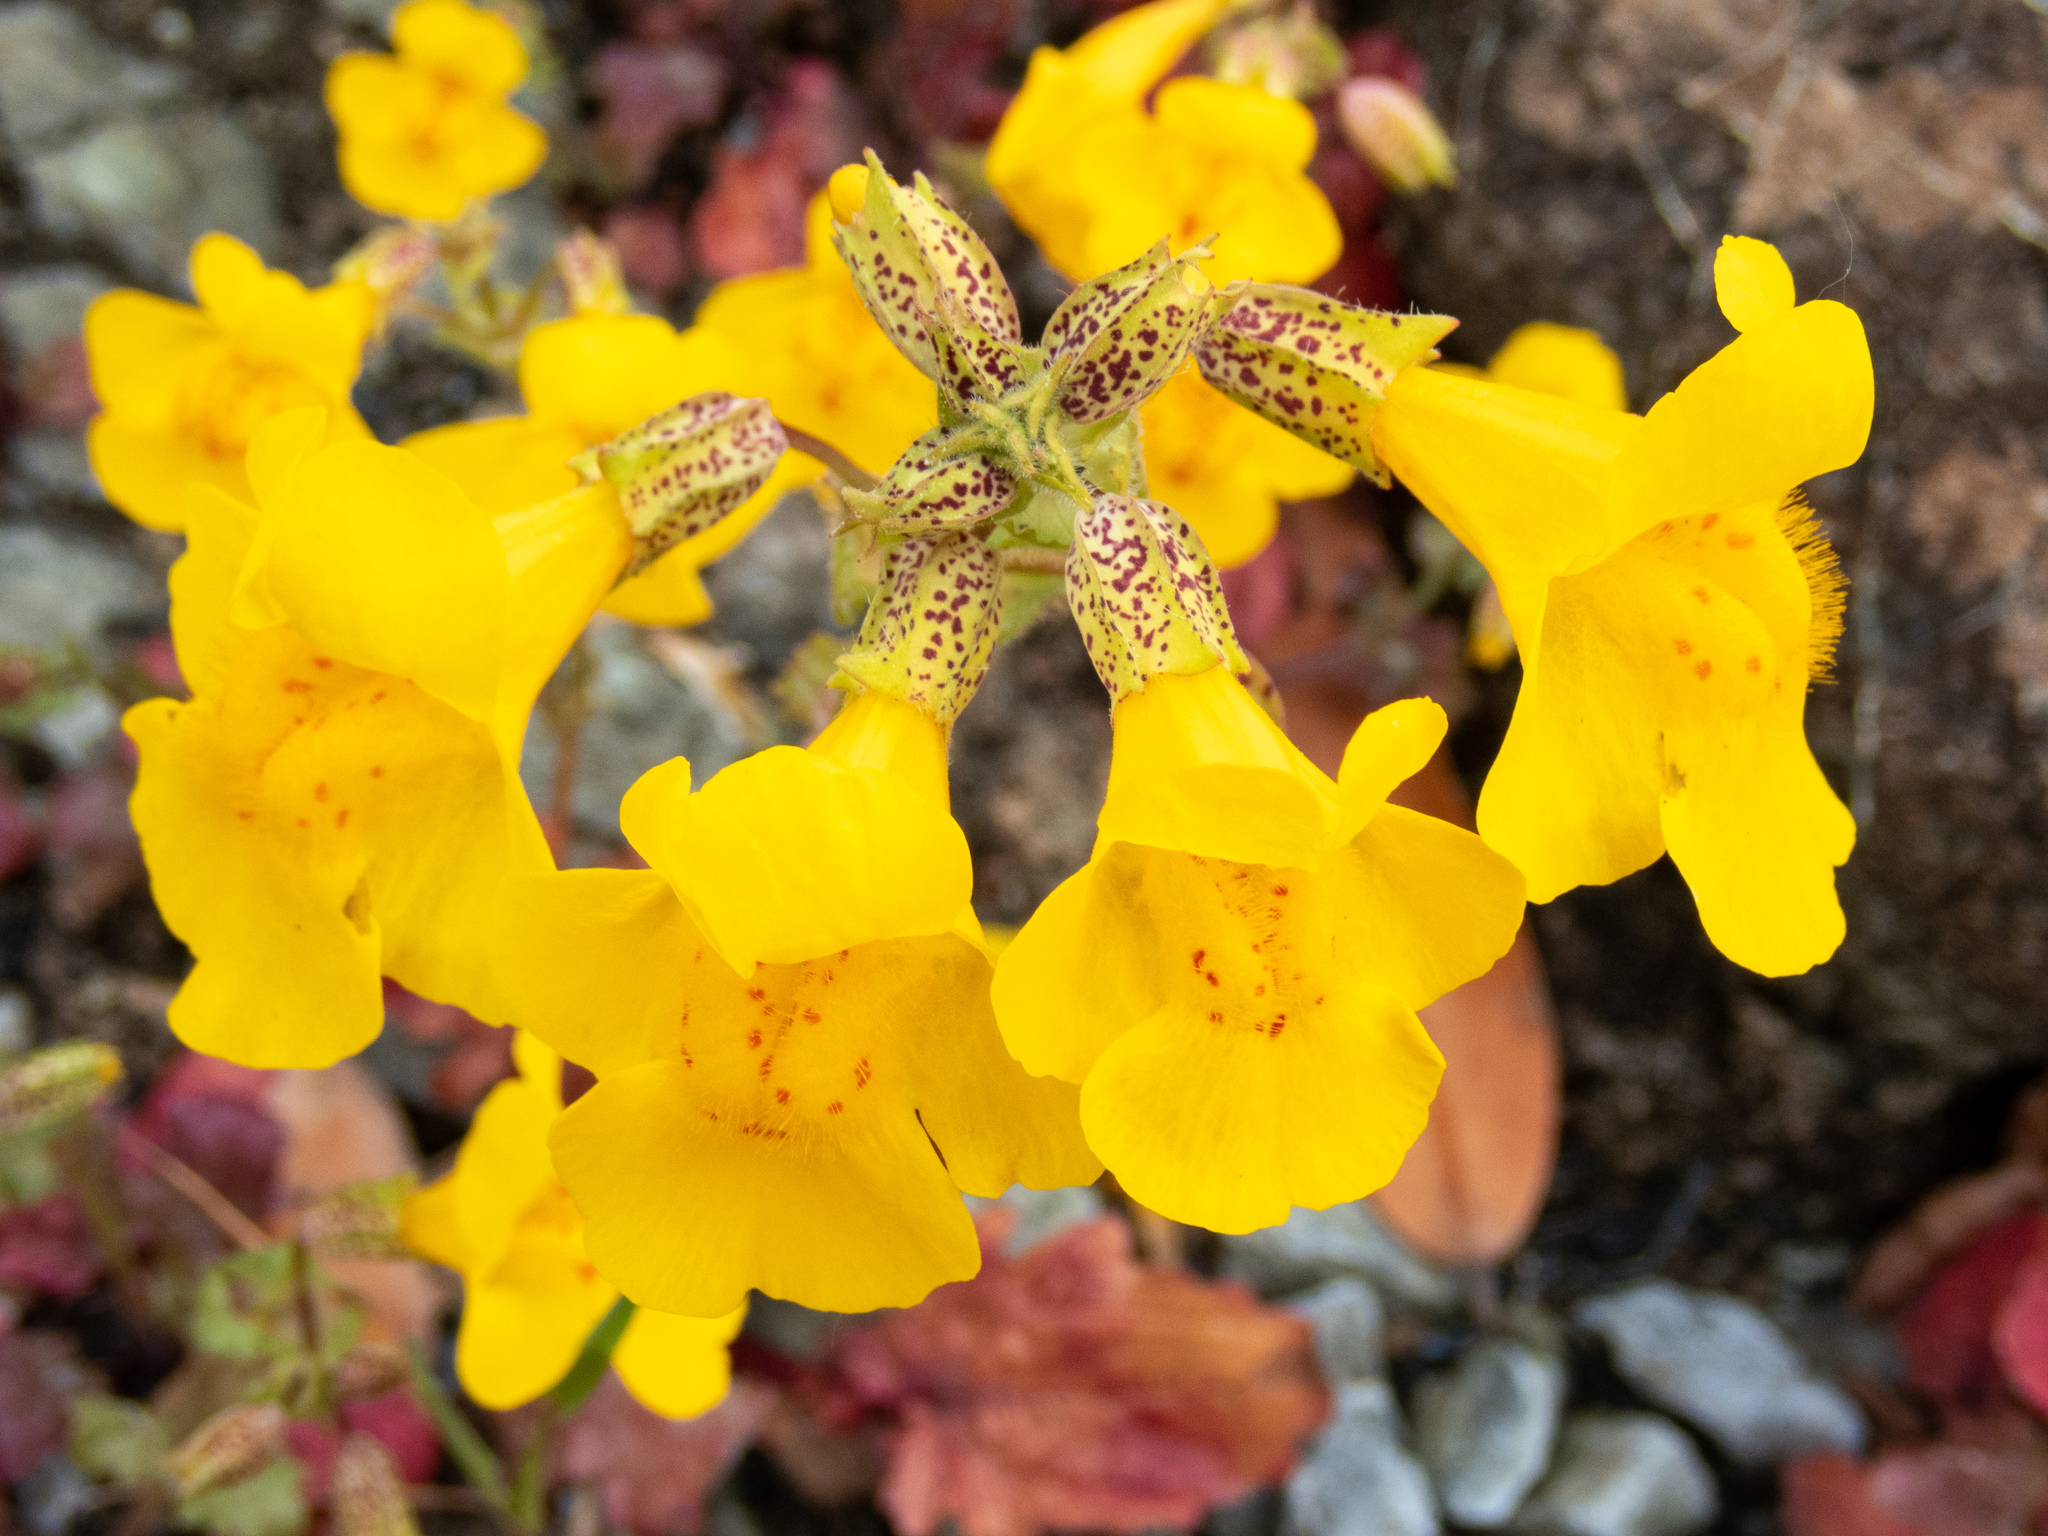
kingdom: Plantae
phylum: Tracheophyta
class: Magnoliopsida
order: Lamiales
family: Phrymaceae
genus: Erythranthe
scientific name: Erythranthe guttata
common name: Monkeyflower
